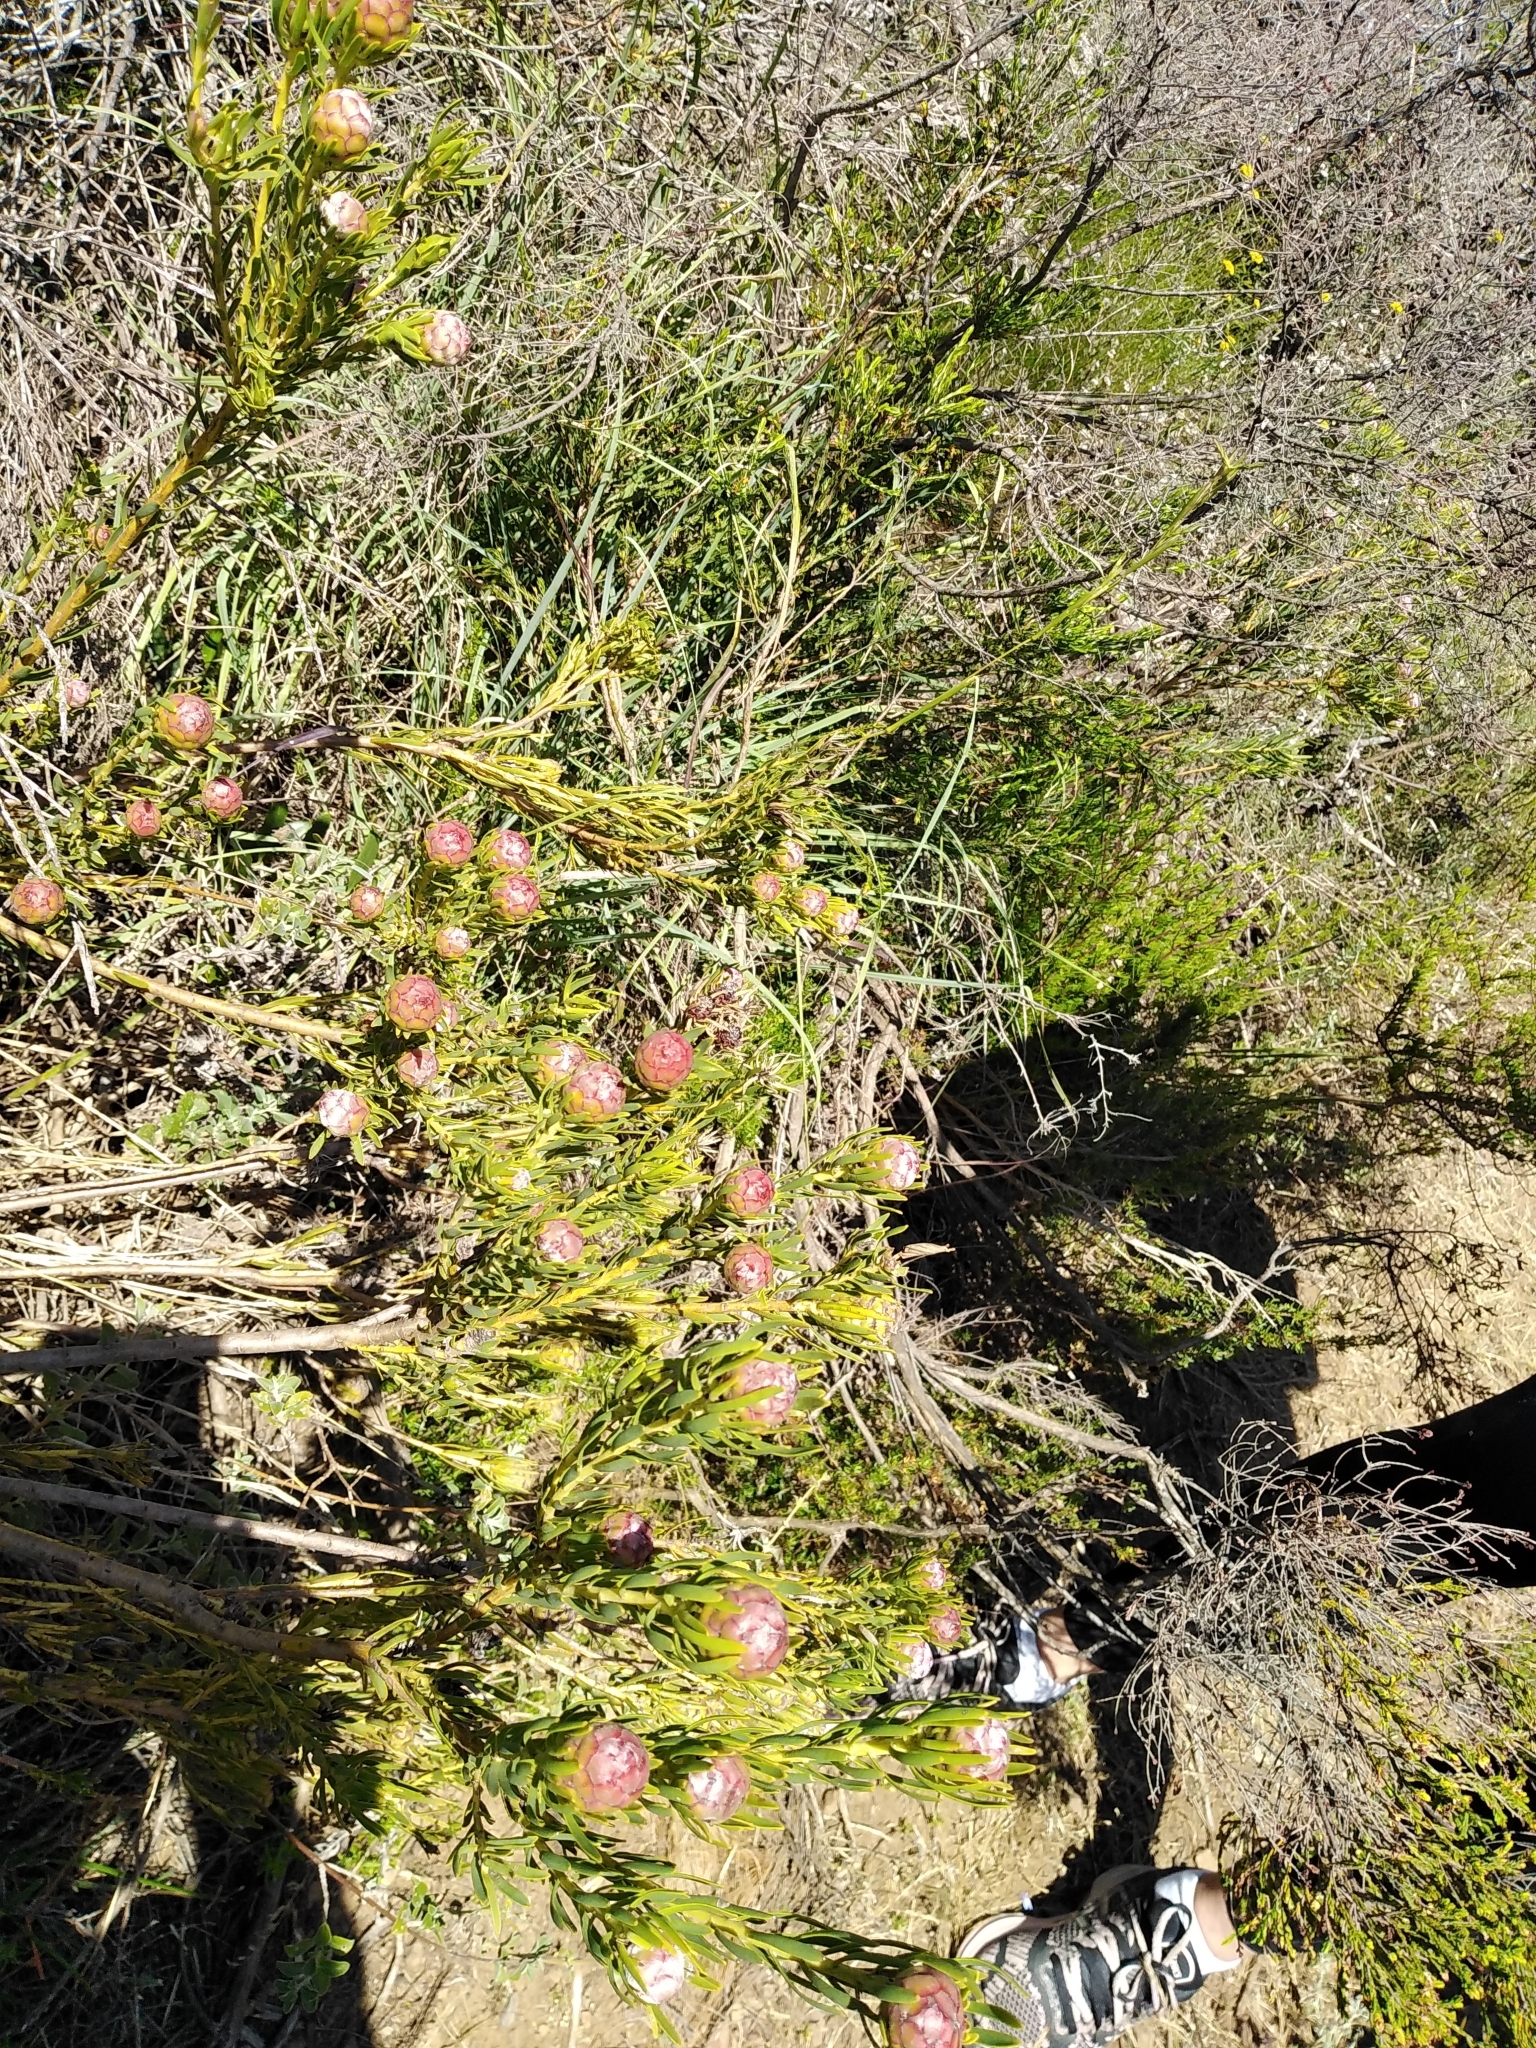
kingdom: Plantae
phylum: Tracheophyta
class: Magnoliopsida
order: Proteales
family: Proteaceae
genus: Leucadendron
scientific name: Leucadendron lanigerum
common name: Shale conebush
